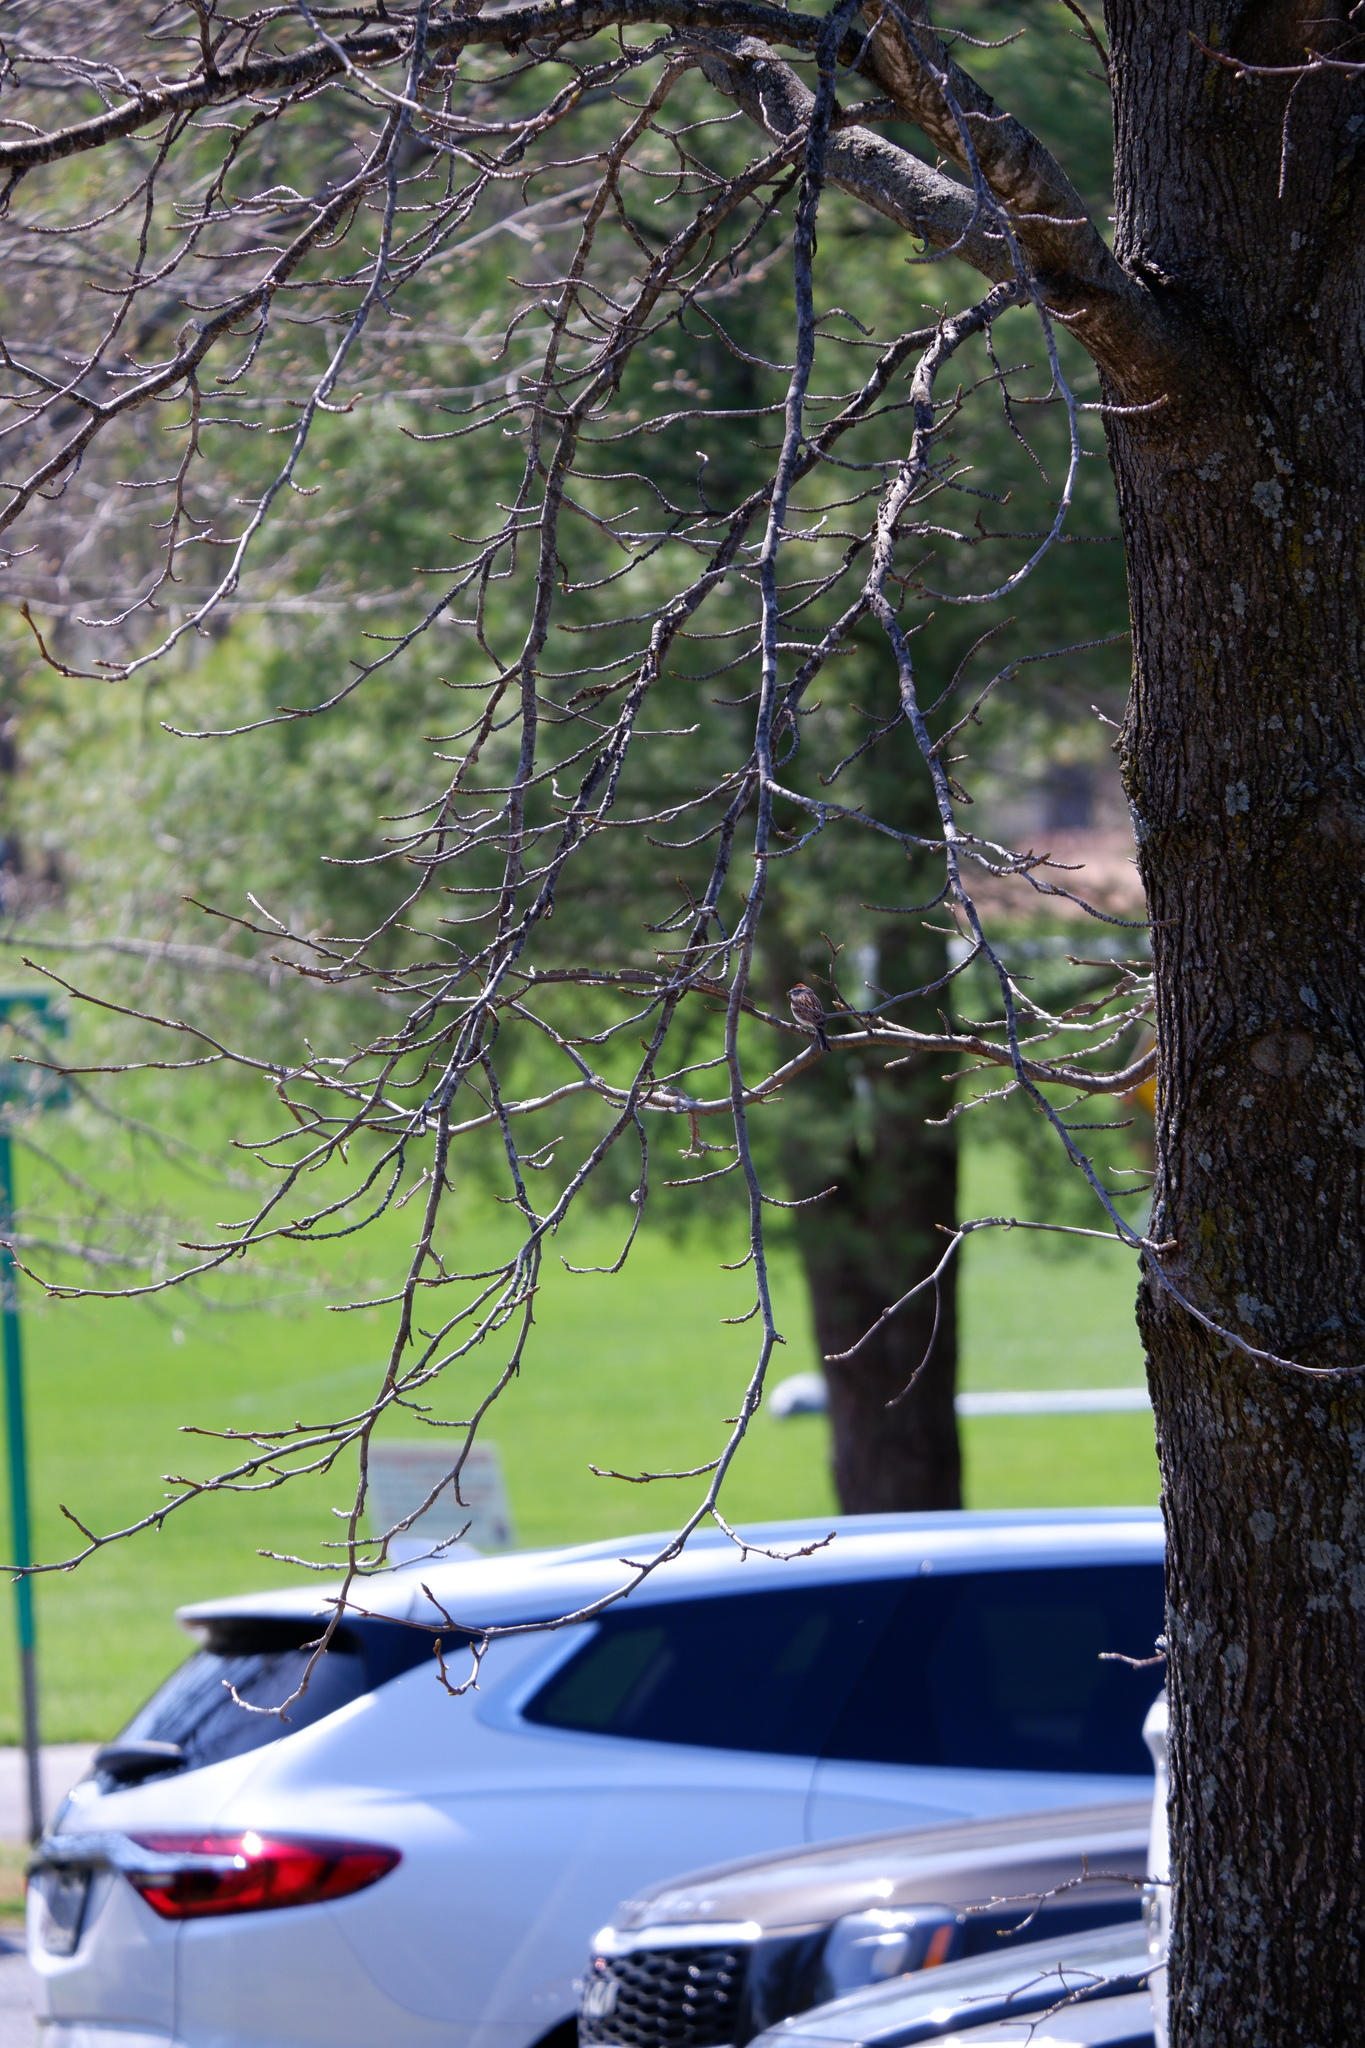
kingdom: Animalia
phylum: Chordata
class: Aves
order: Passeriformes
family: Passerellidae
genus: Spizella
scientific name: Spizella passerina
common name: Chipping sparrow
